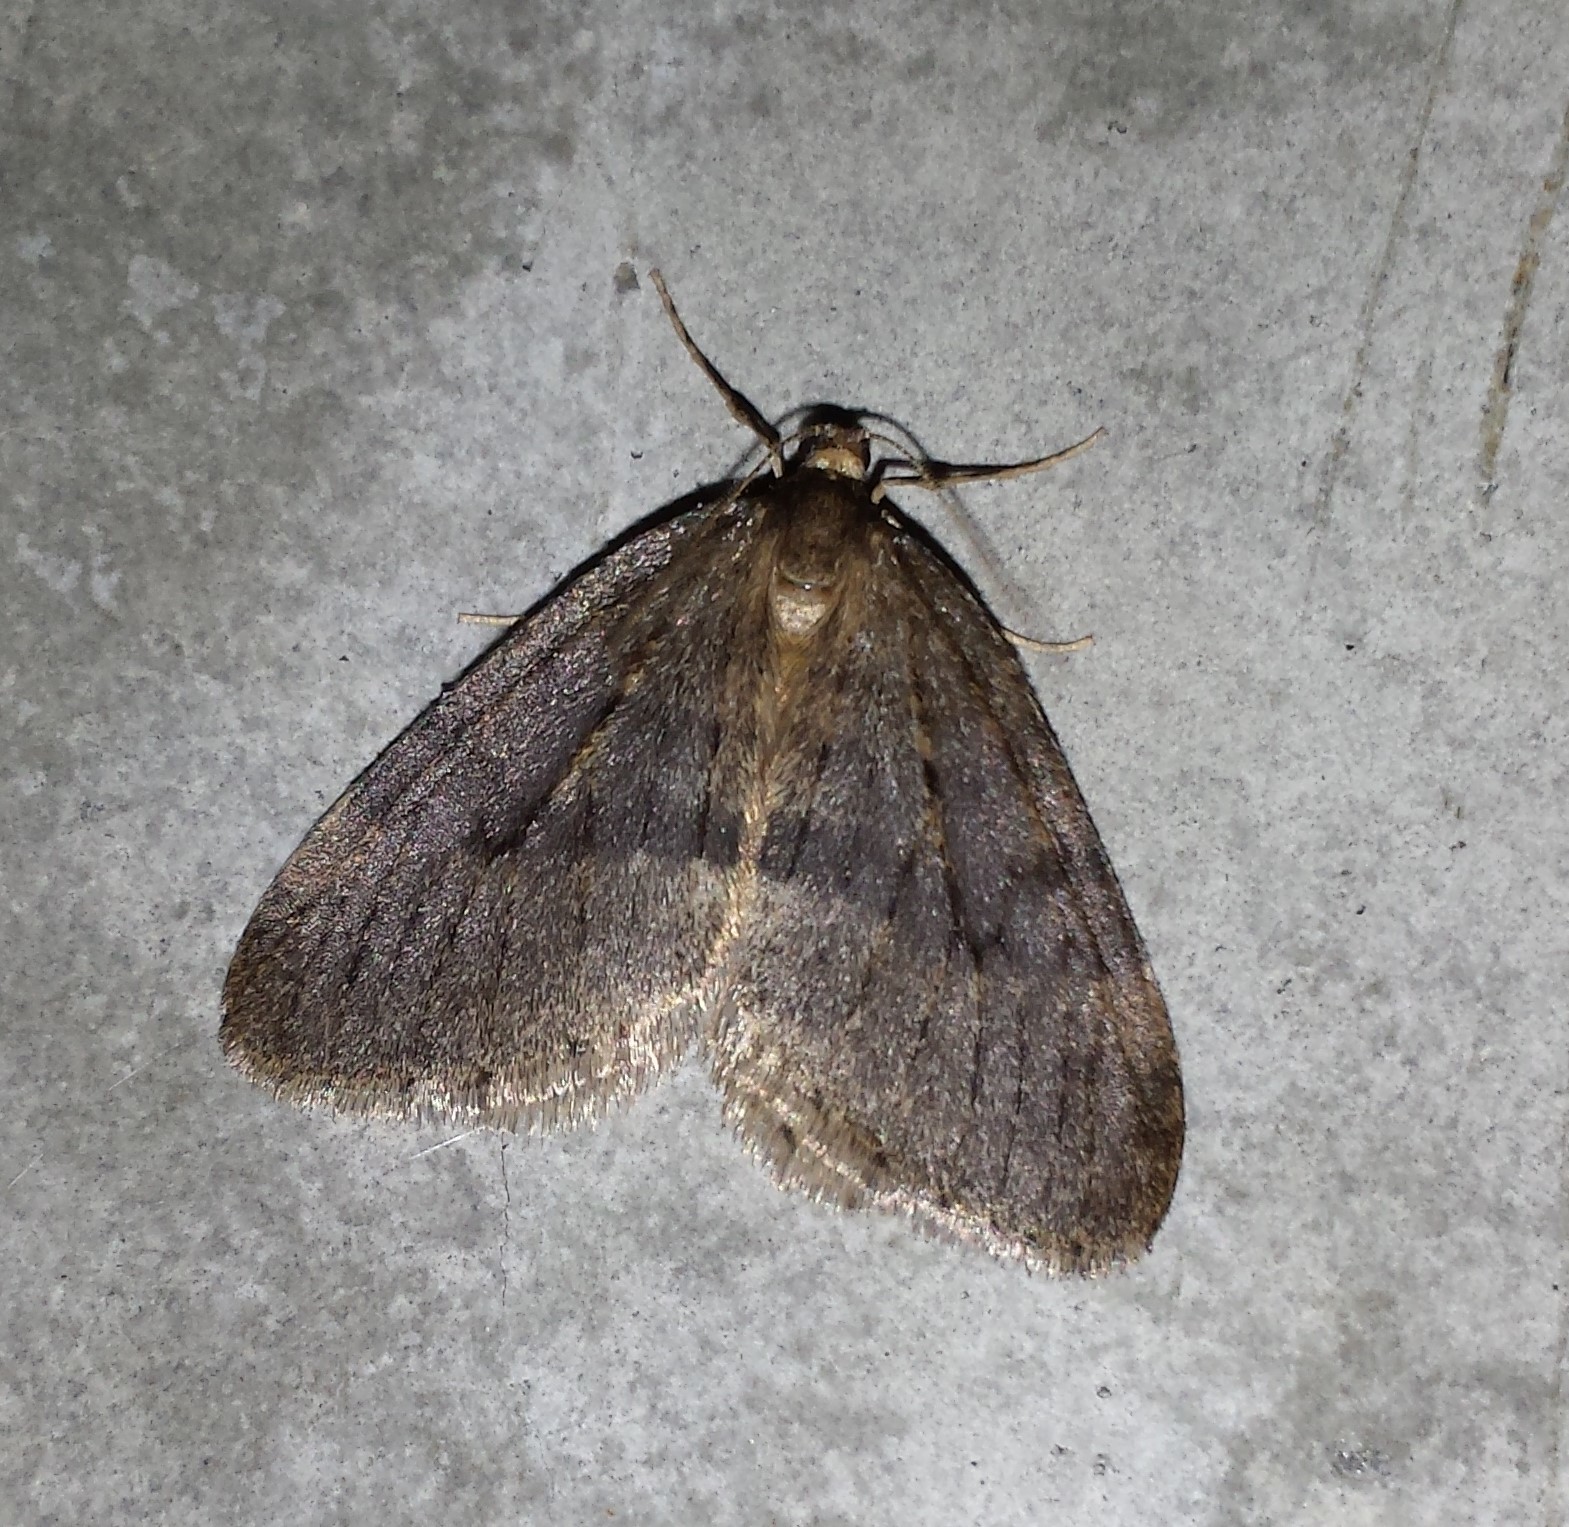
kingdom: Animalia
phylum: Arthropoda
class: Insecta
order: Lepidoptera
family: Geometridae
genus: Operophtera
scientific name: Operophtera brumata
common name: Winter moth
